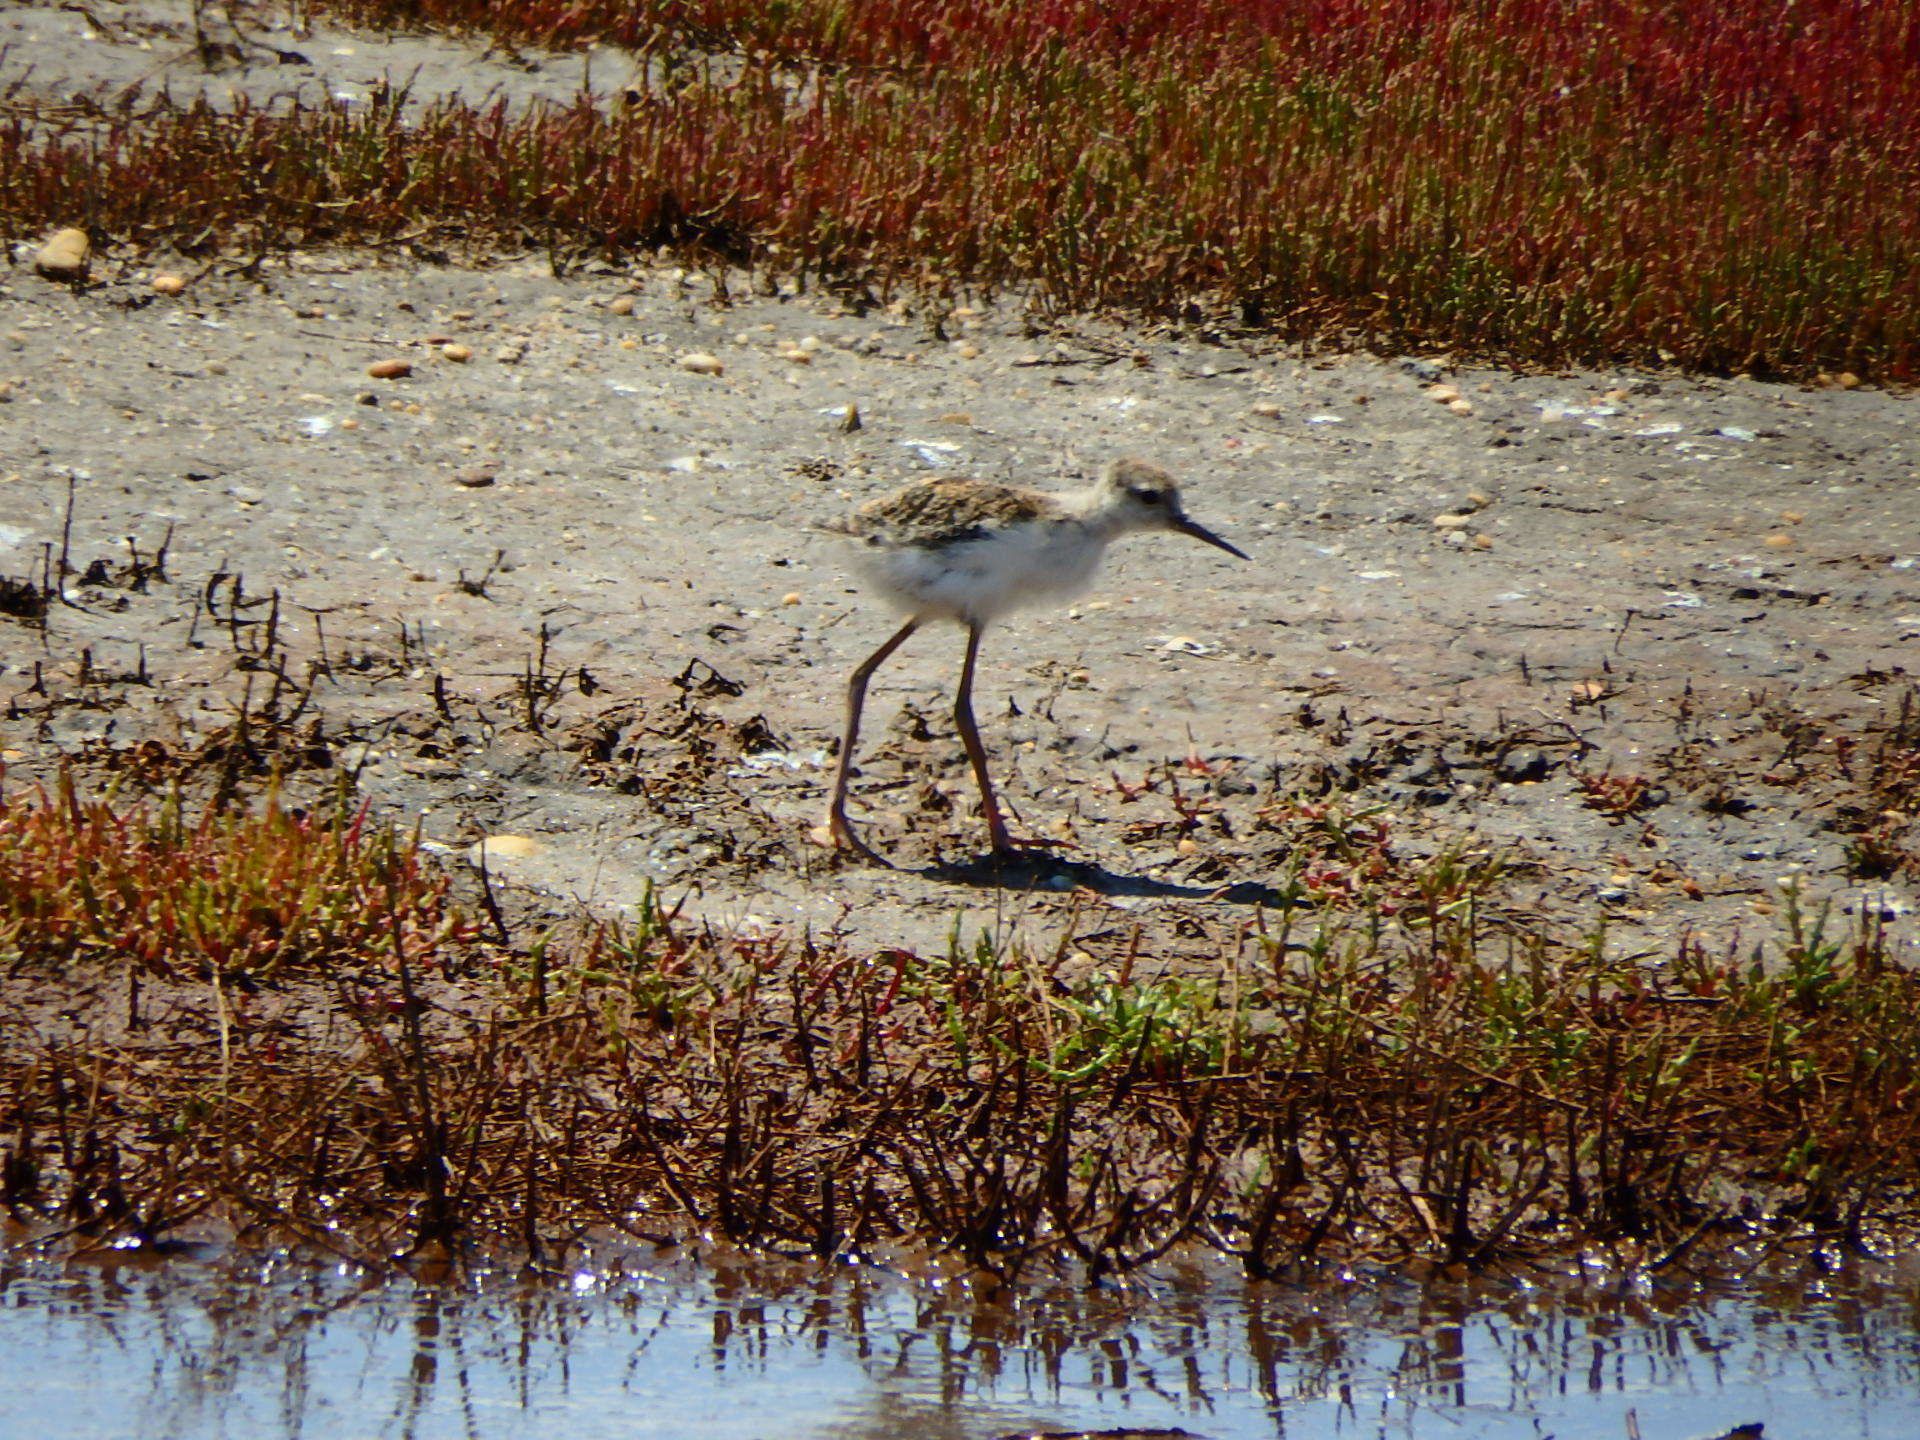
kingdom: Animalia
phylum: Chordata
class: Aves
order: Charadriiformes
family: Recurvirostridae
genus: Himantopus
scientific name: Himantopus himantopus
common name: Black-winged stilt
